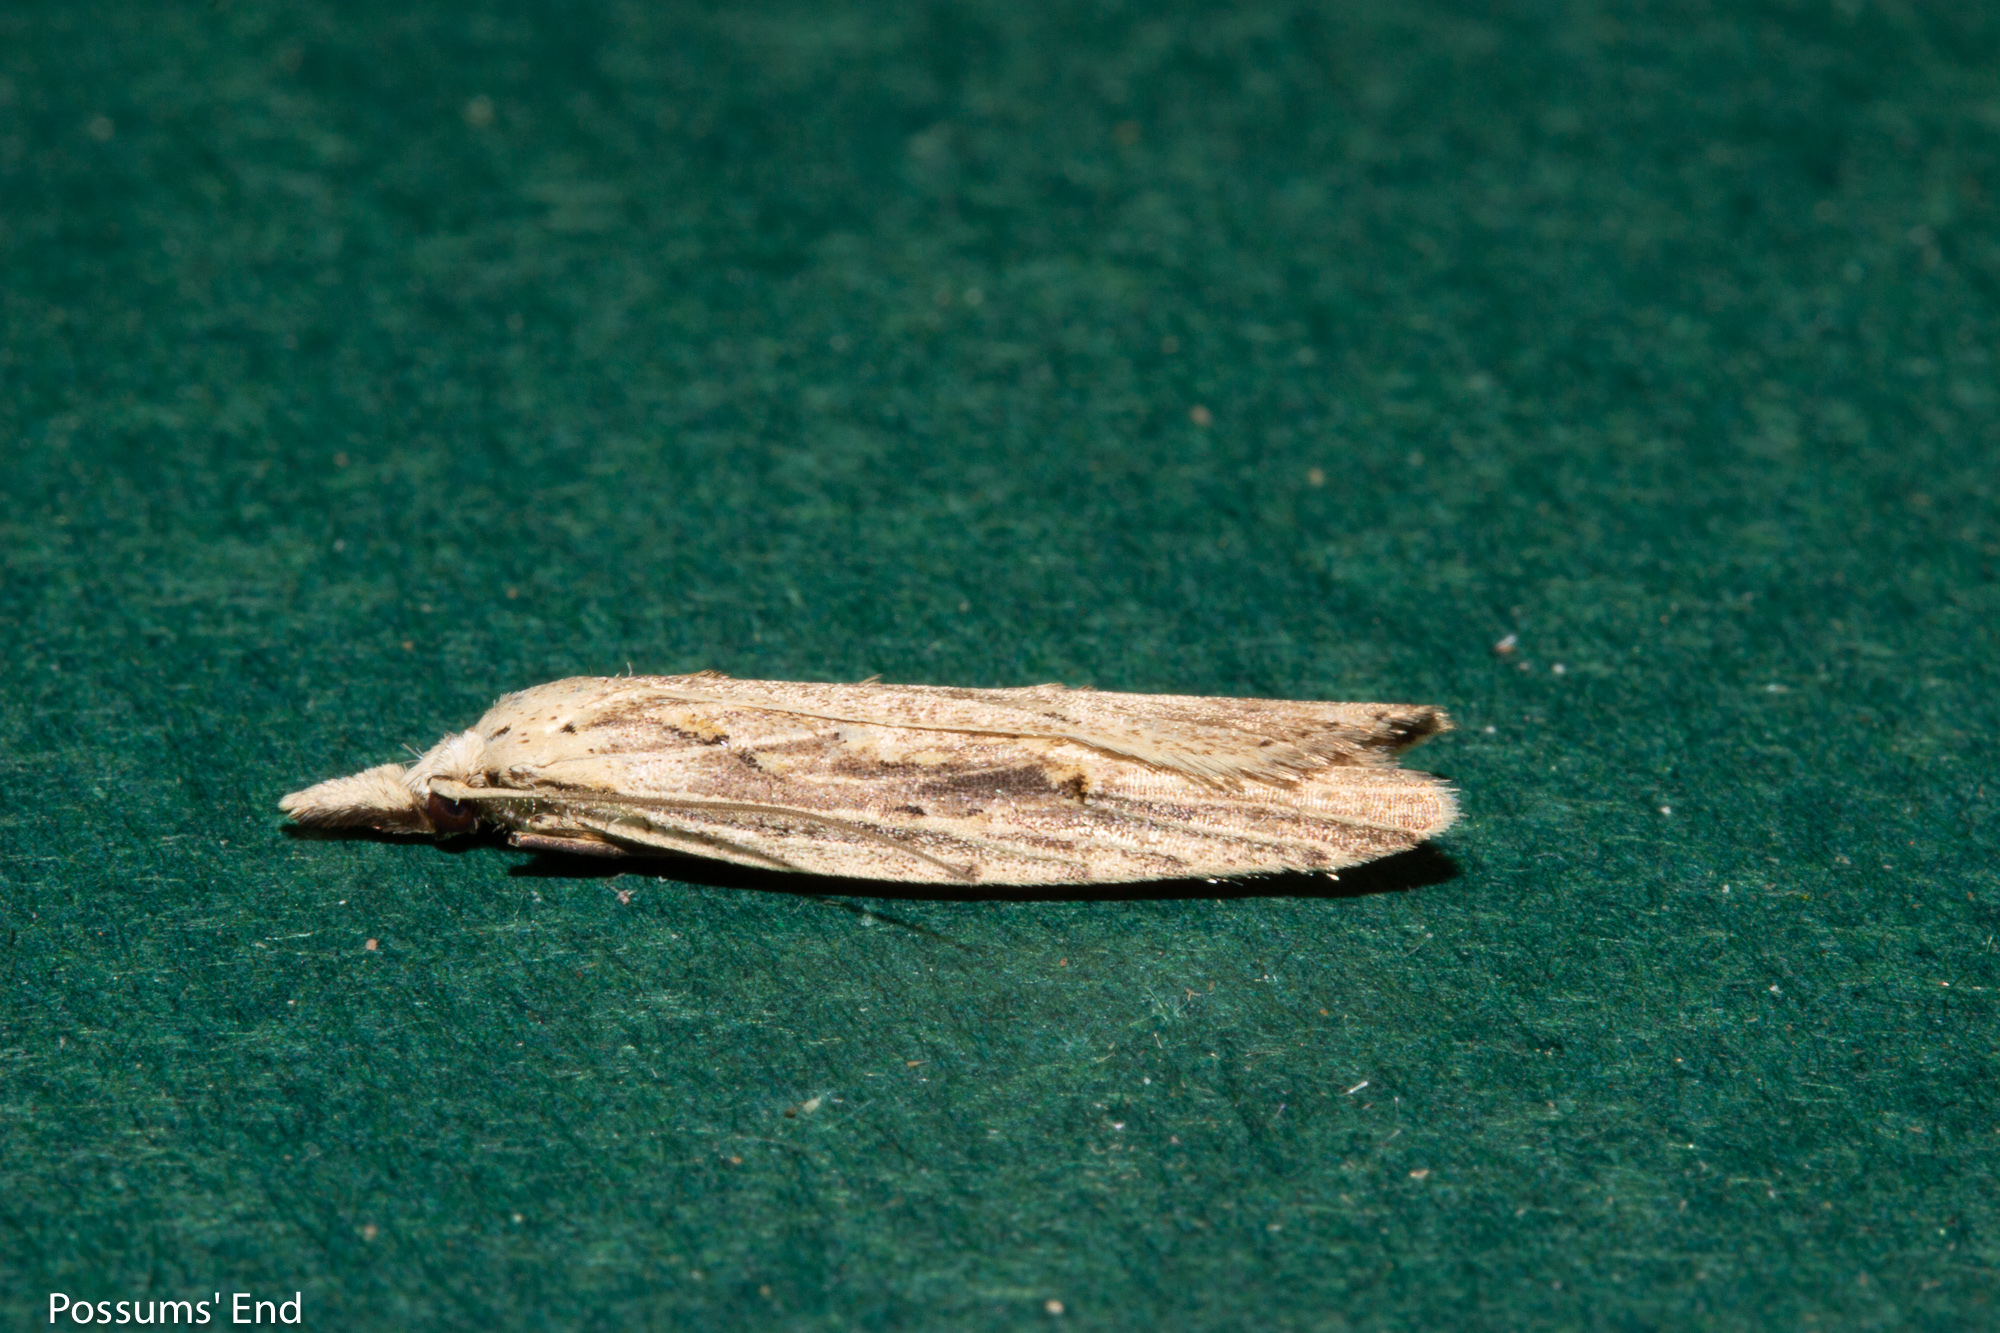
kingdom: Animalia
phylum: Arthropoda
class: Insecta
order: Lepidoptera
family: Carposinidae
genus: Carposina
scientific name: Carposina Heterocrossa exochana
